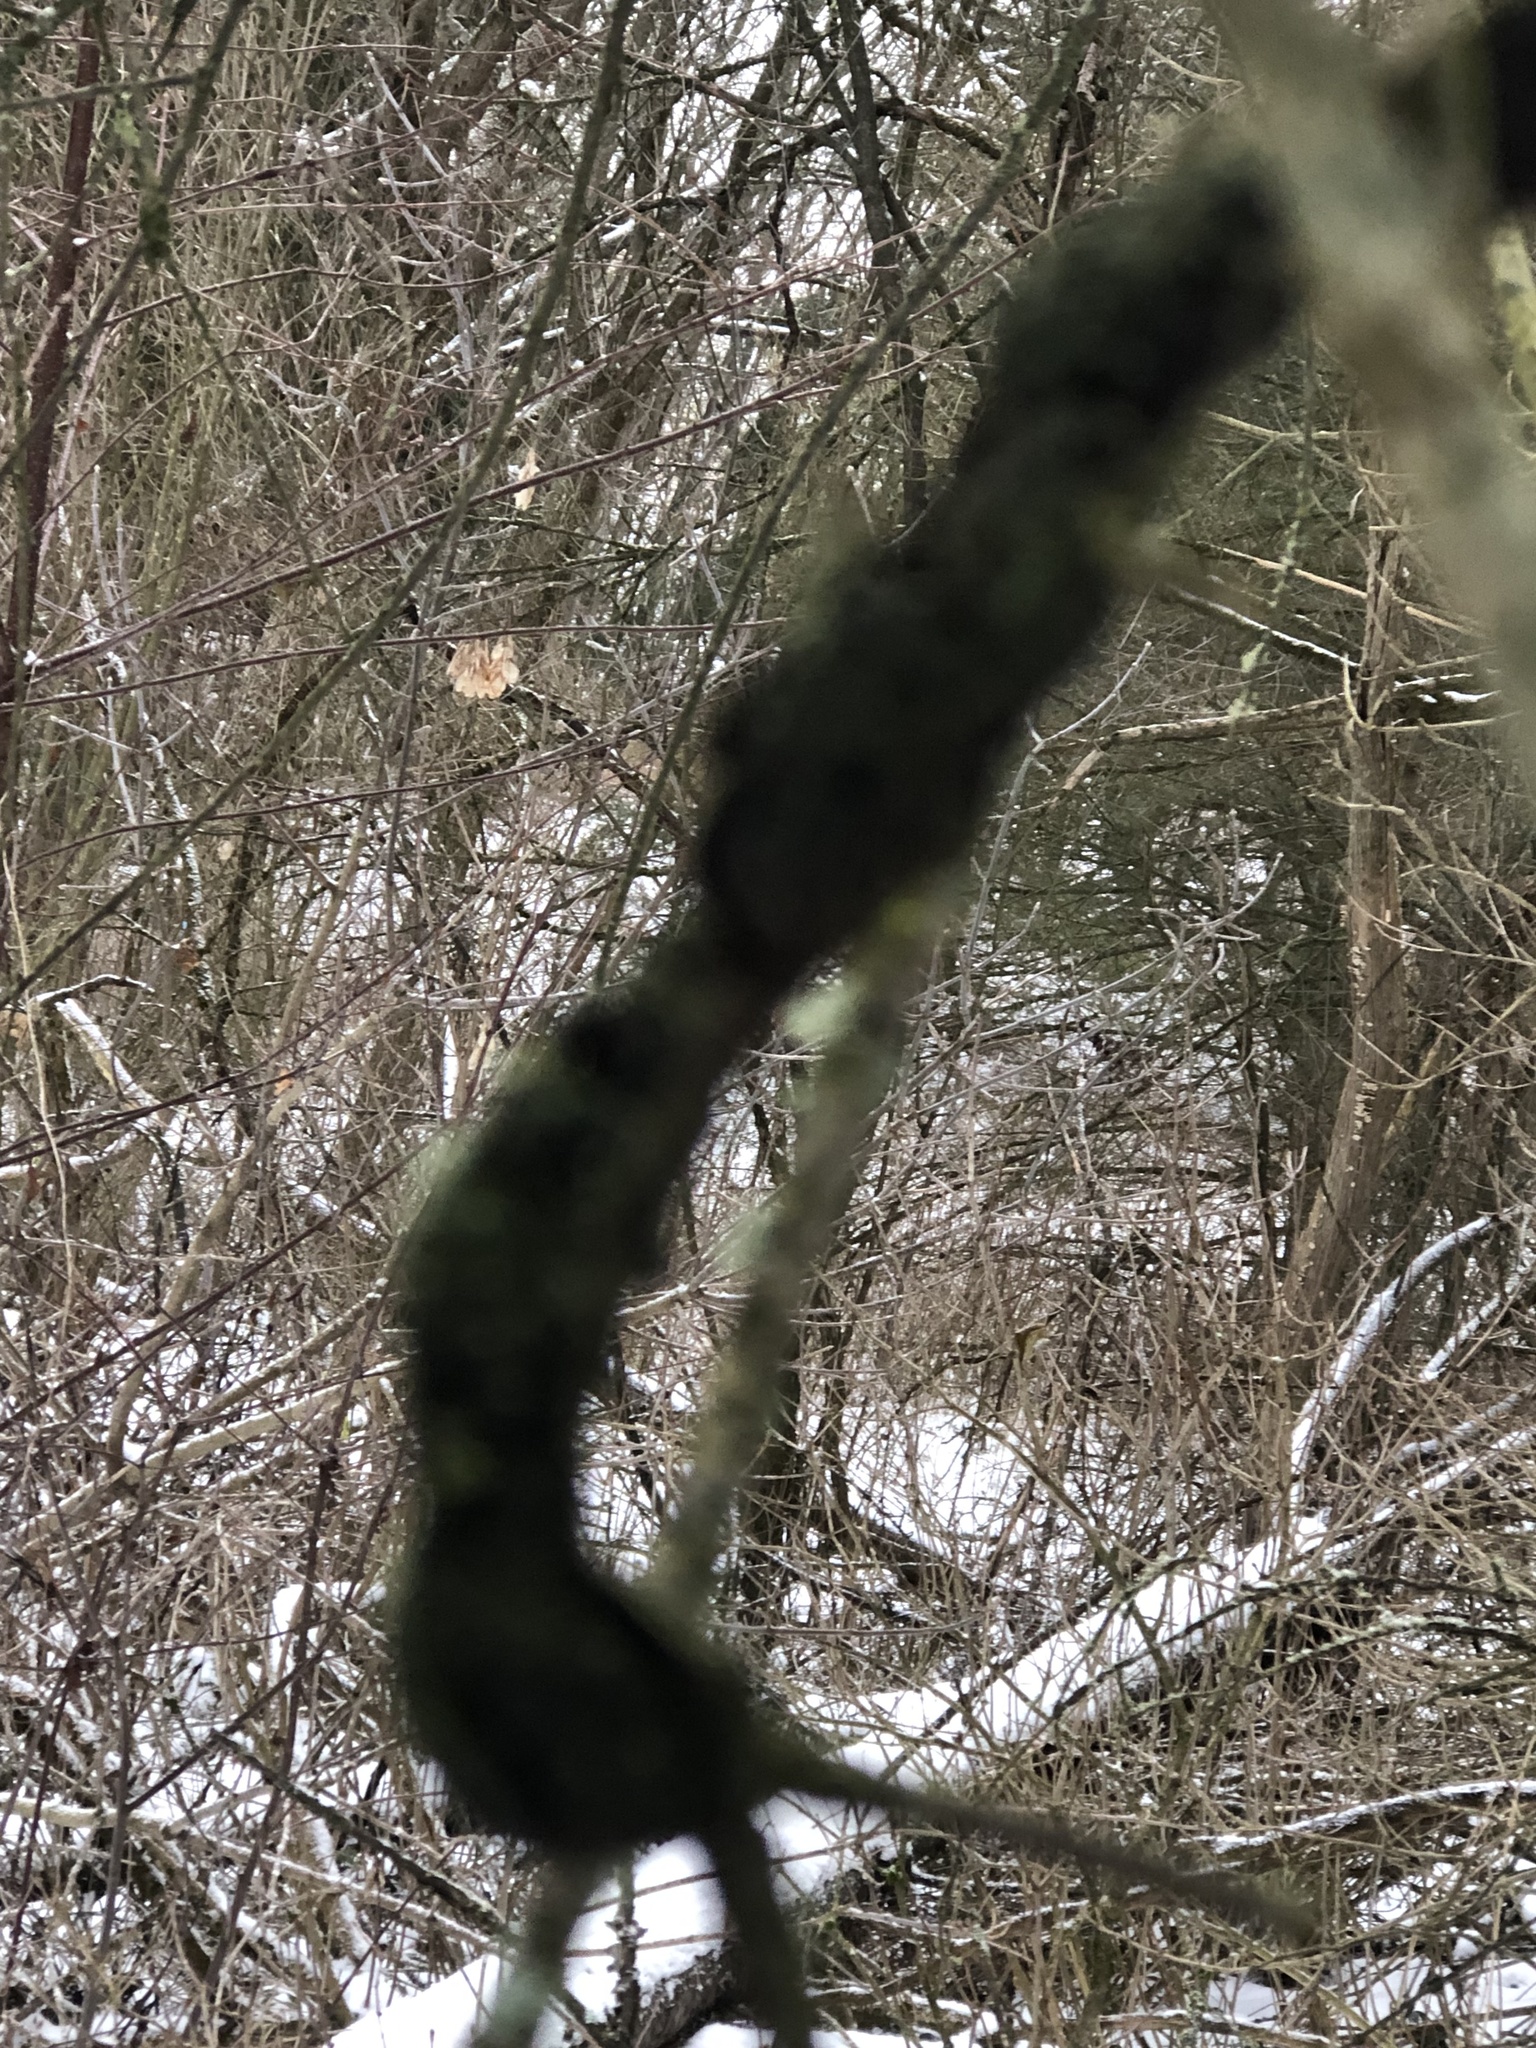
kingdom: Fungi
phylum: Ascomycota
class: Dothideomycetes
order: Venturiales
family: Venturiaceae
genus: Apiosporina
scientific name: Apiosporina morbosa
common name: Black knot
